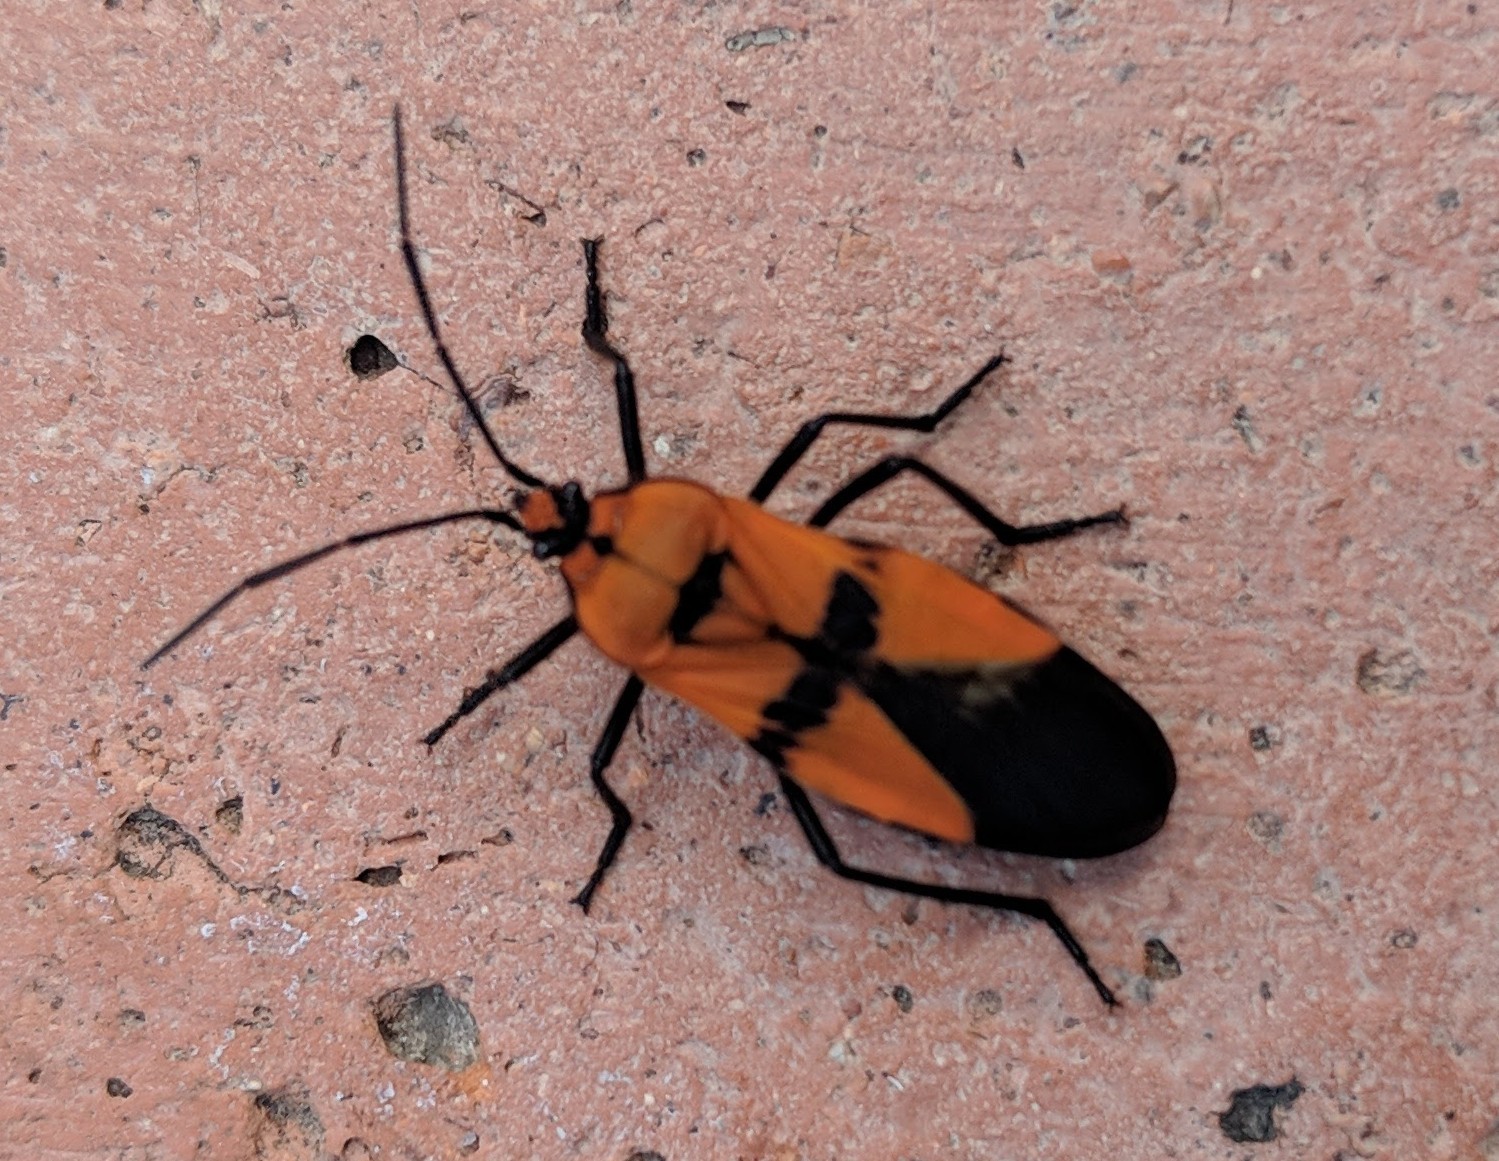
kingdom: Animalia
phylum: Arthropoda
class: Insecta
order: Hemiptera
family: Lygaeidae
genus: Oncopeltus
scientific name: Oncopeltus varicolor
